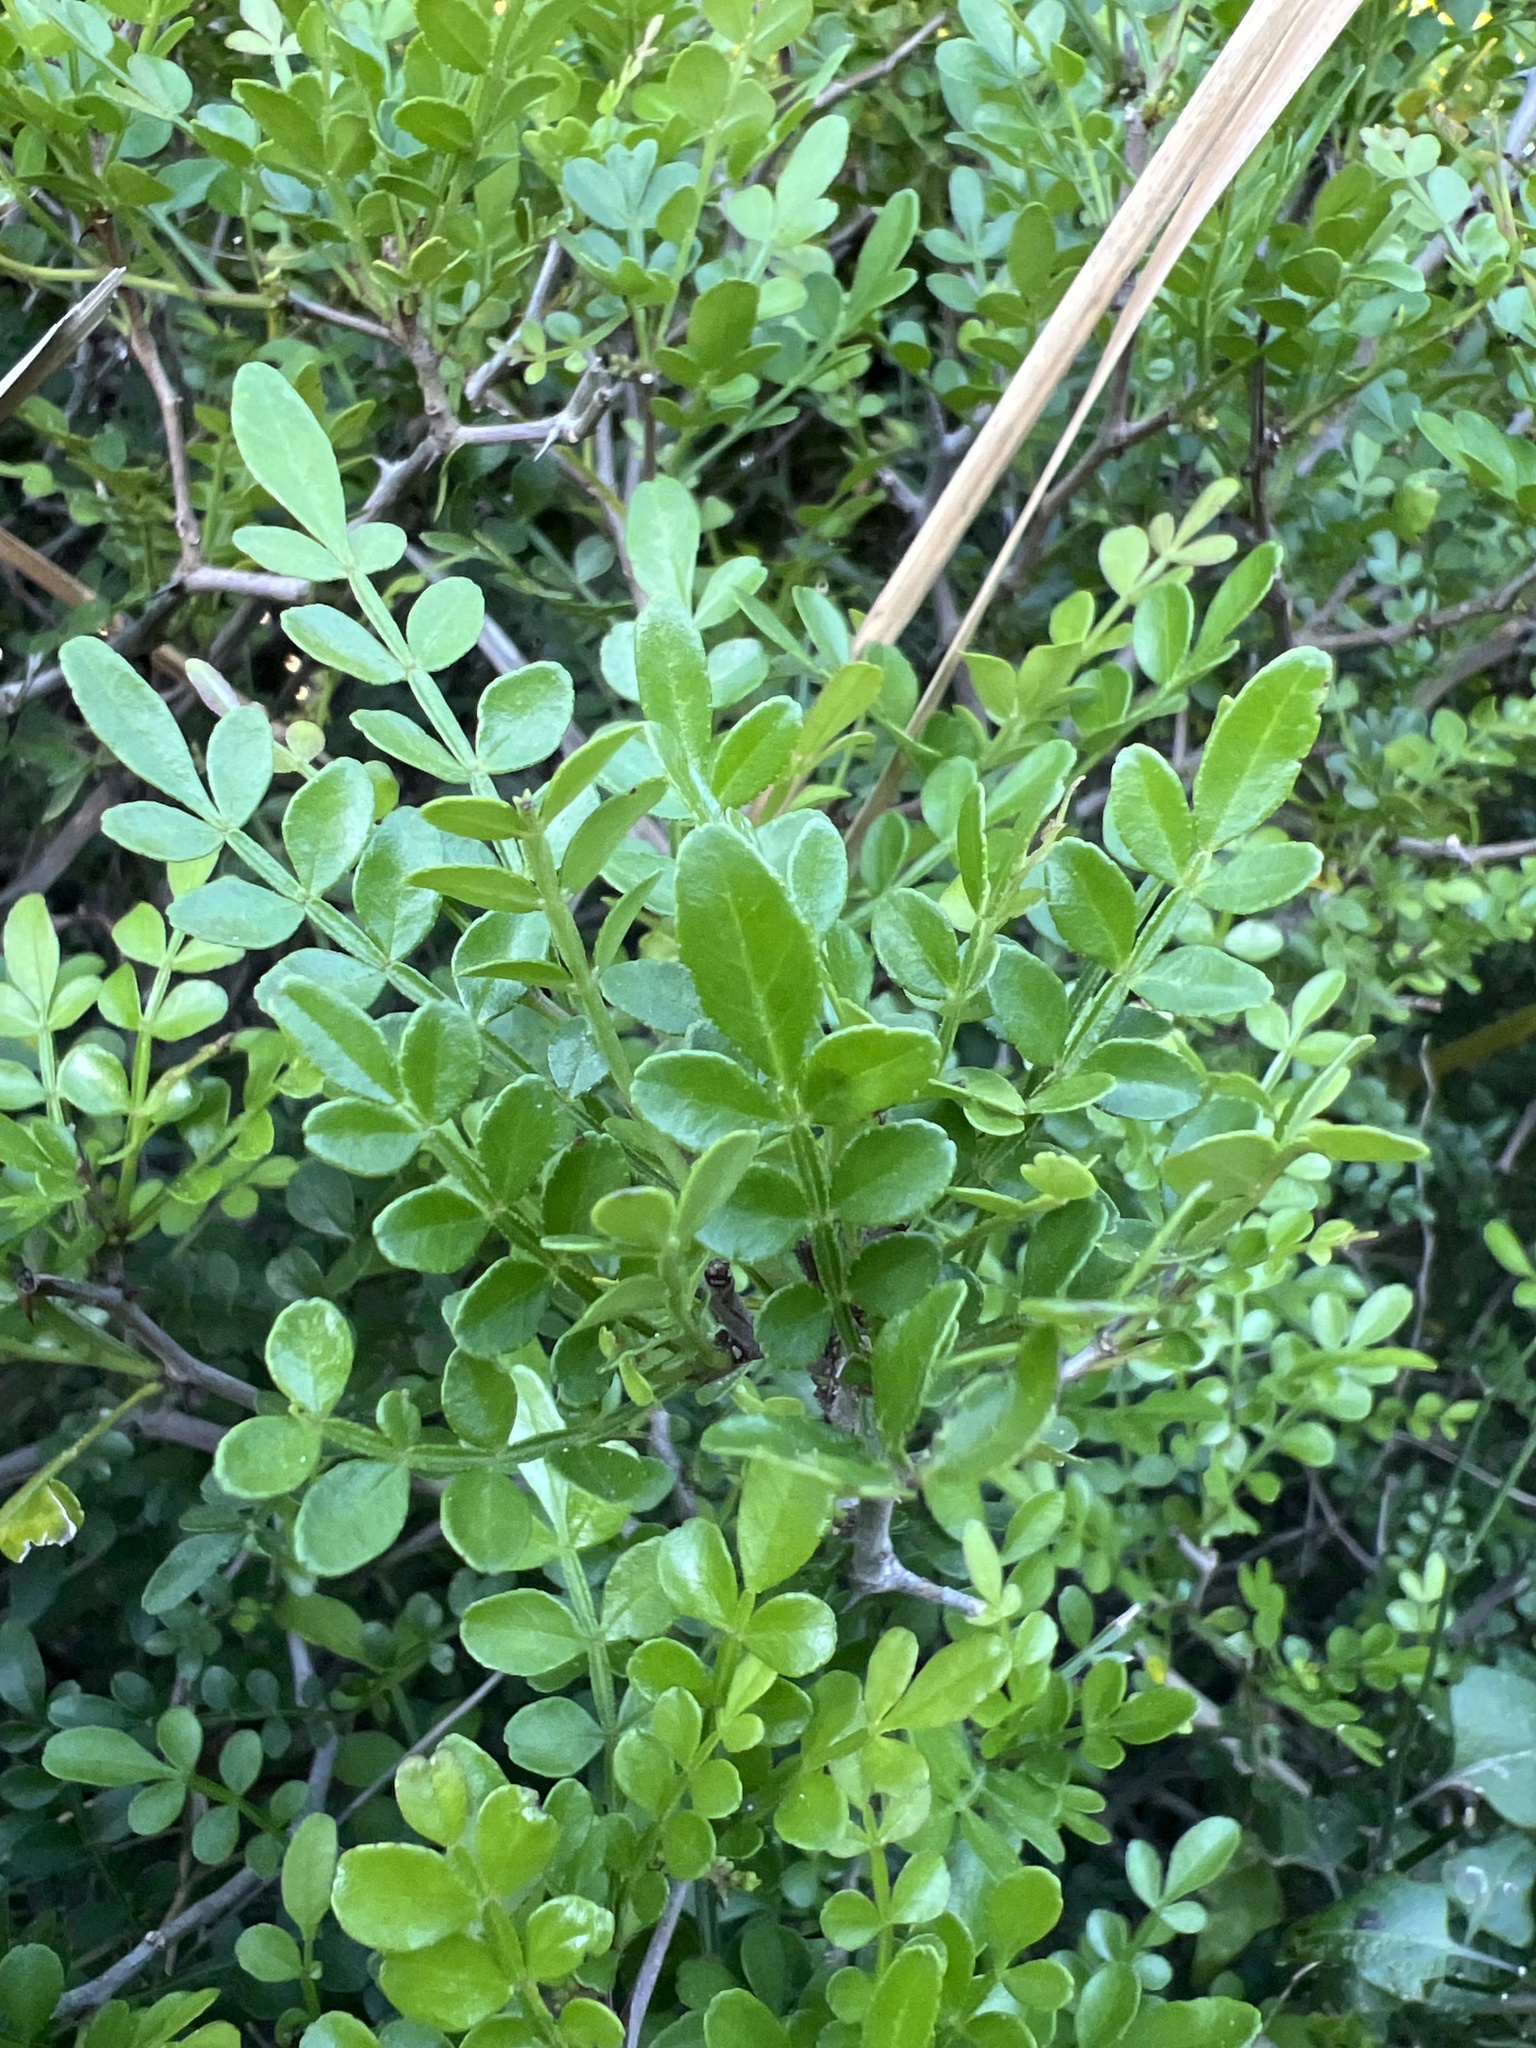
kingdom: Plantae
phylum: Tracheophyta
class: Magnoliopsida
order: Sapindales
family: Rutaceae
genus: Zanthoxylum
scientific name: Zanthoxylum fagara
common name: Lime prickly-ash
